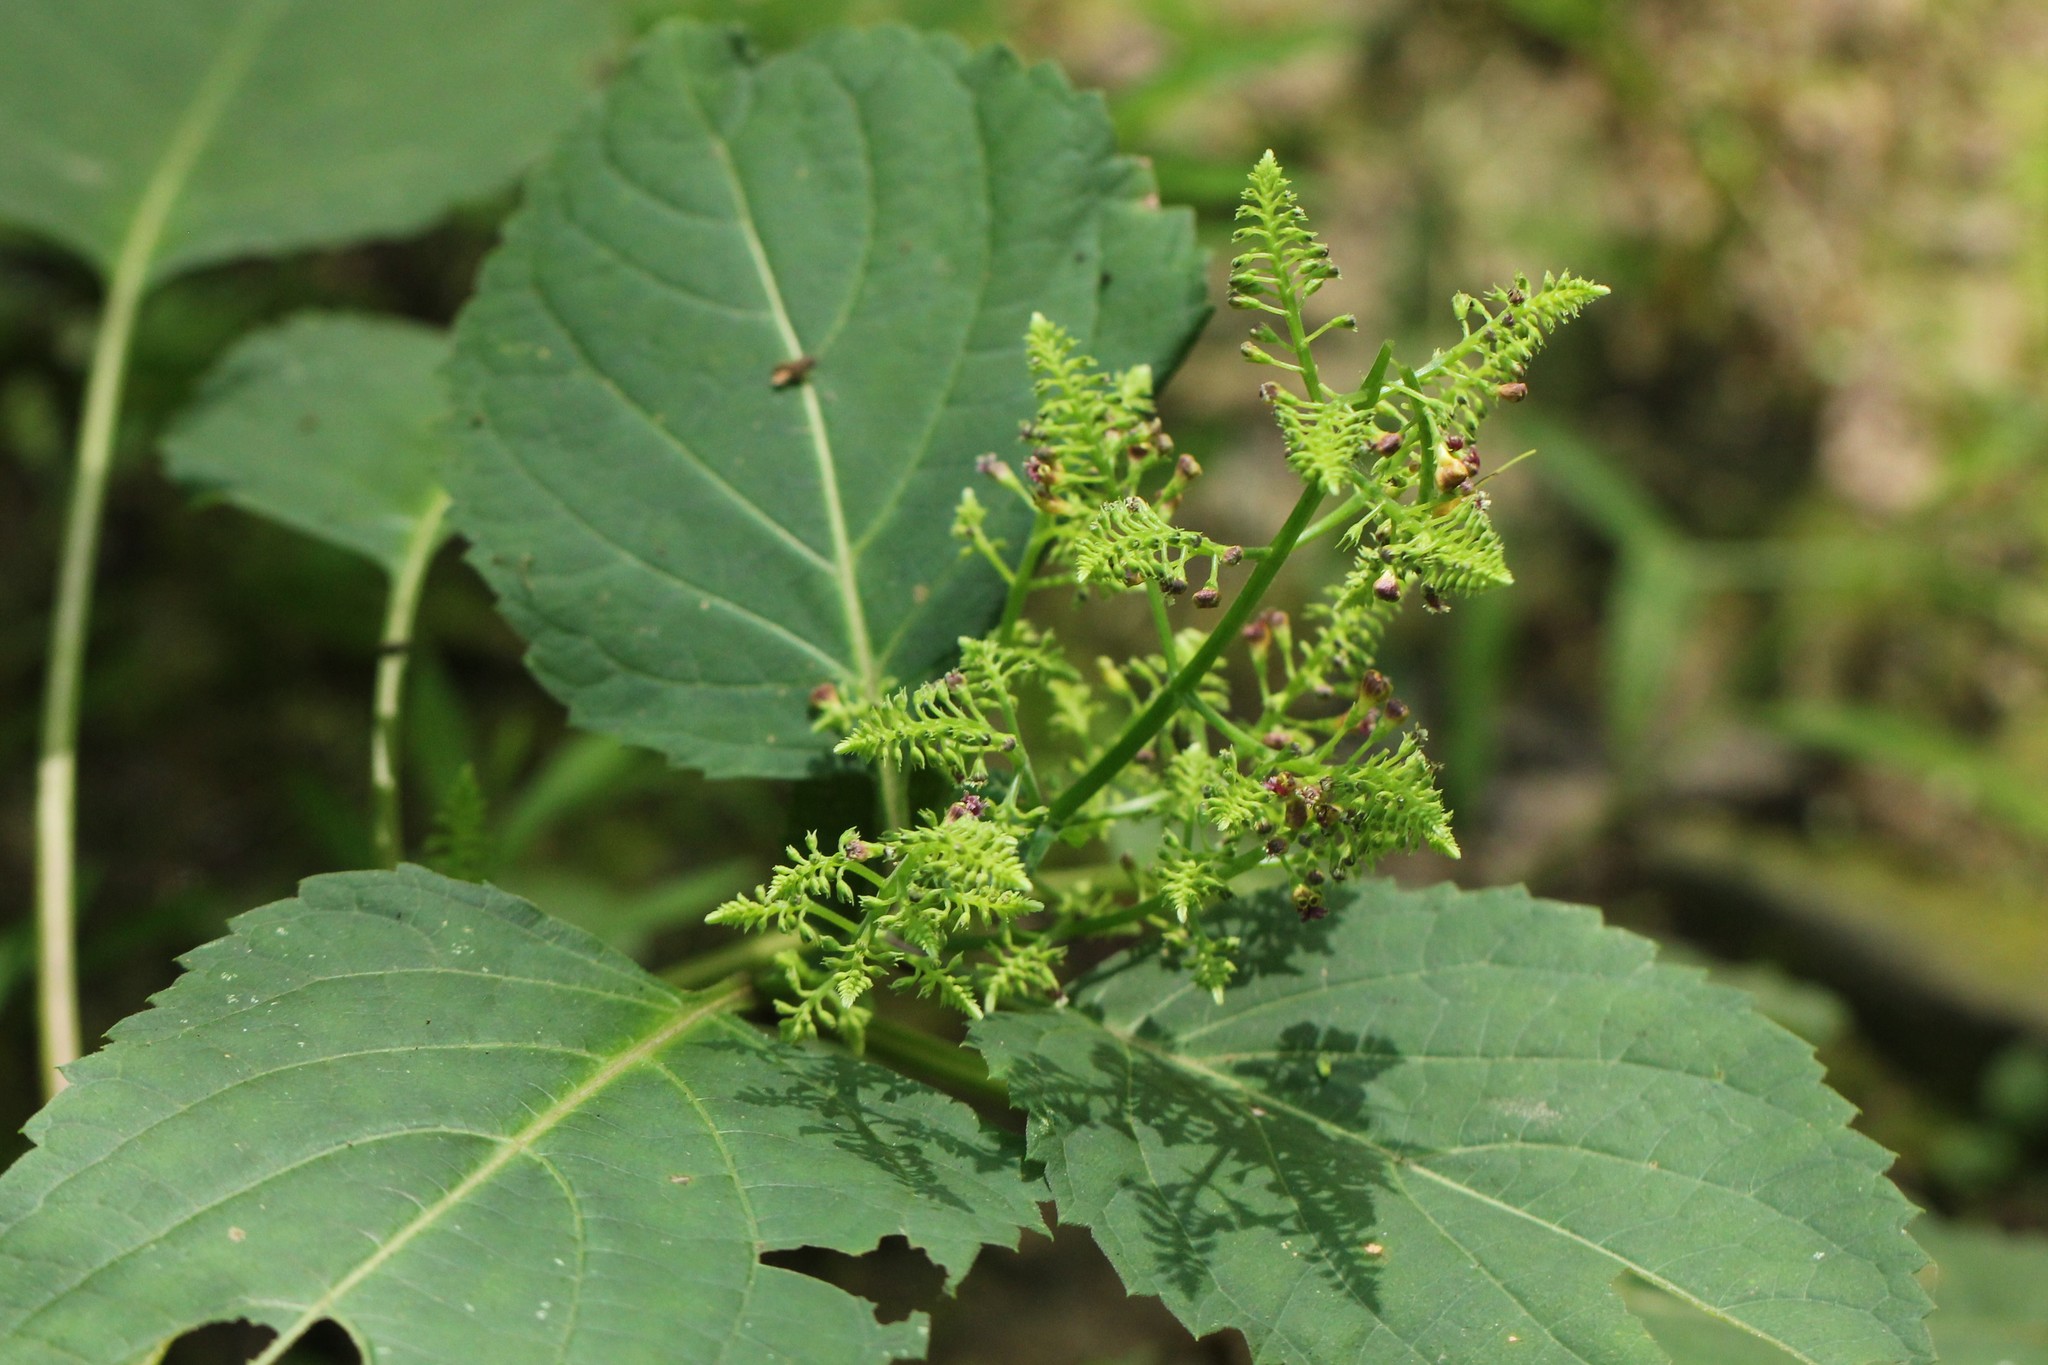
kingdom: Plantae
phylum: Tracheophyta
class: Magnoliopsida
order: Lamiales
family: Lamiaceae
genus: Collinsonia
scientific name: Collinsonia canadensis
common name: Northern horsebalm
